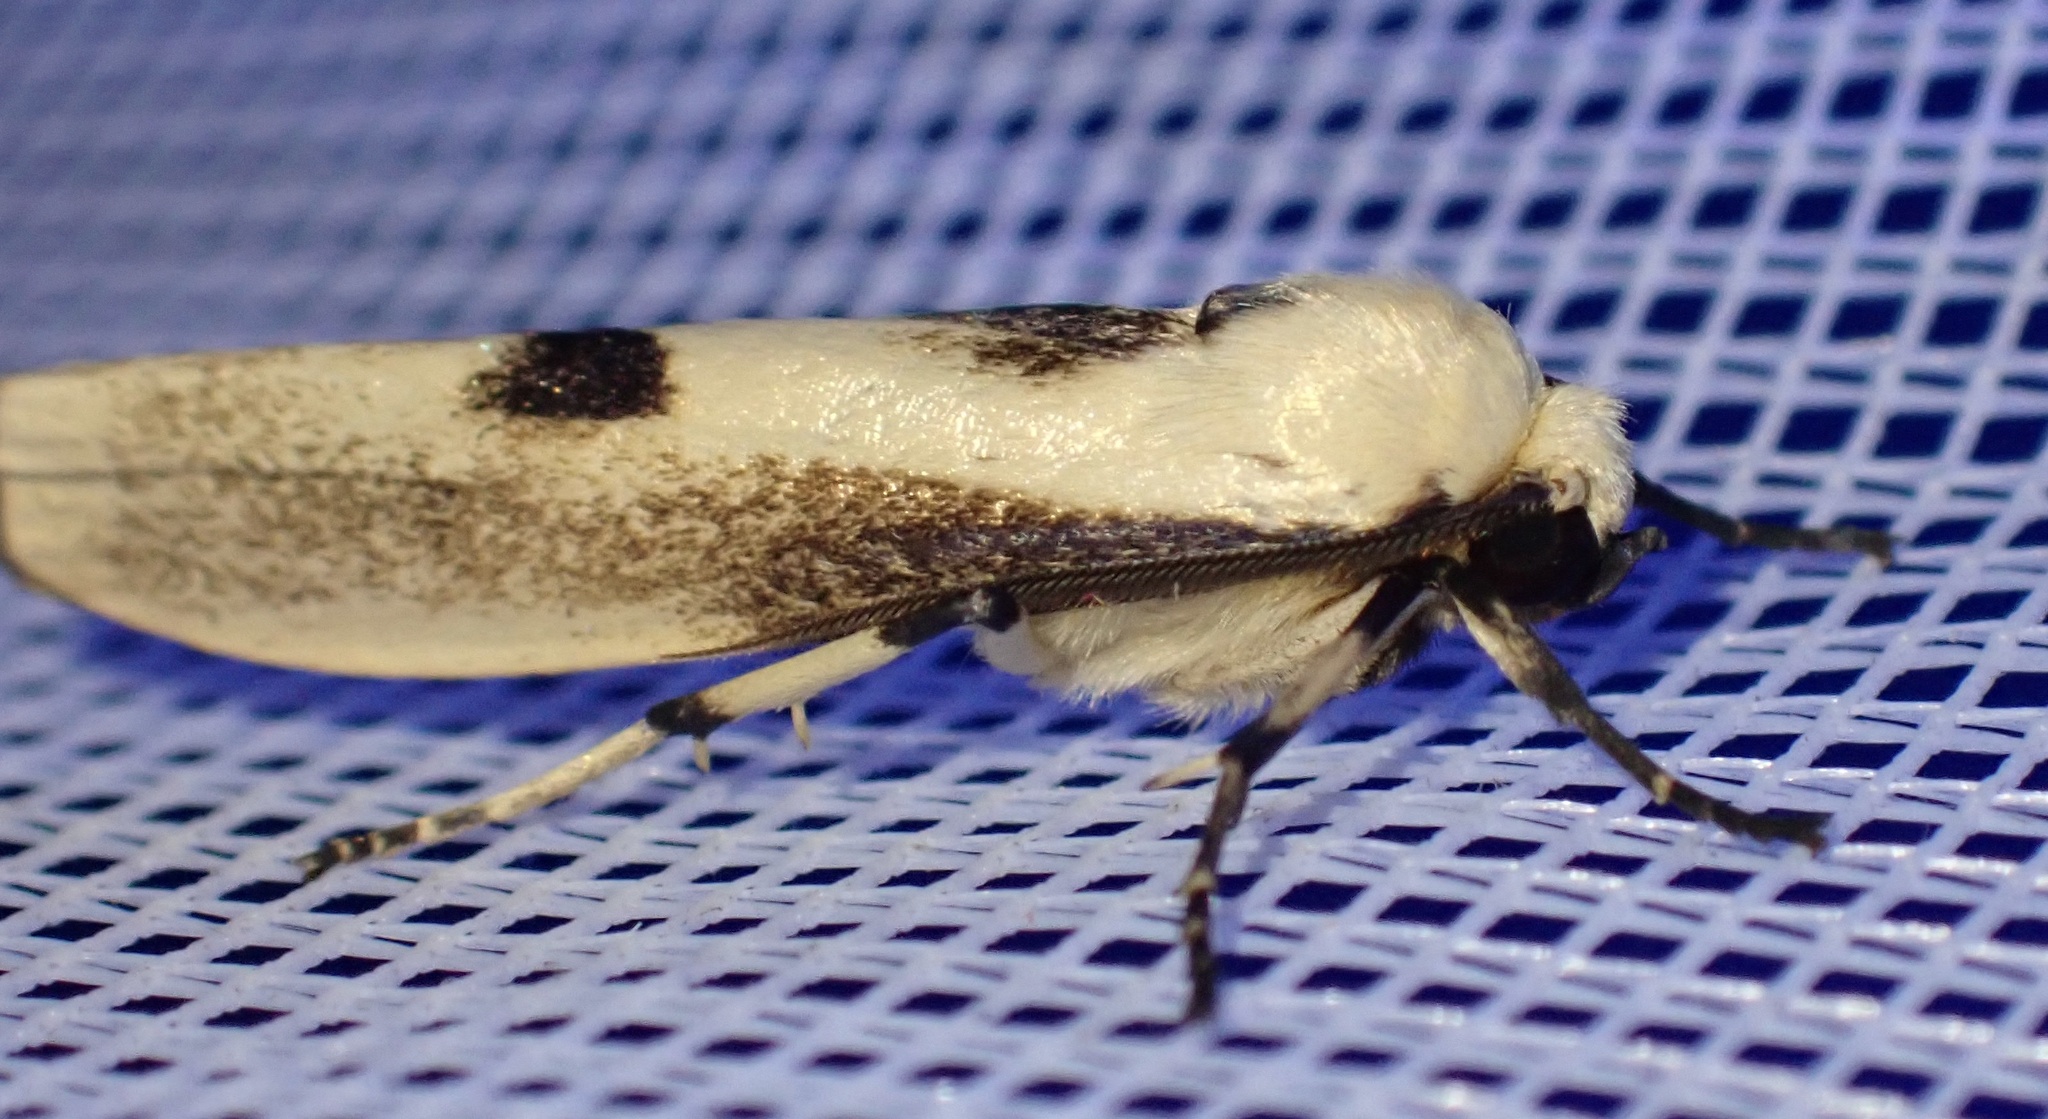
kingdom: Animalia
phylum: Arthropoda
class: Insecta
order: Lepidoptera
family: Erebidae
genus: Oeonosia
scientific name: Oeonosia
